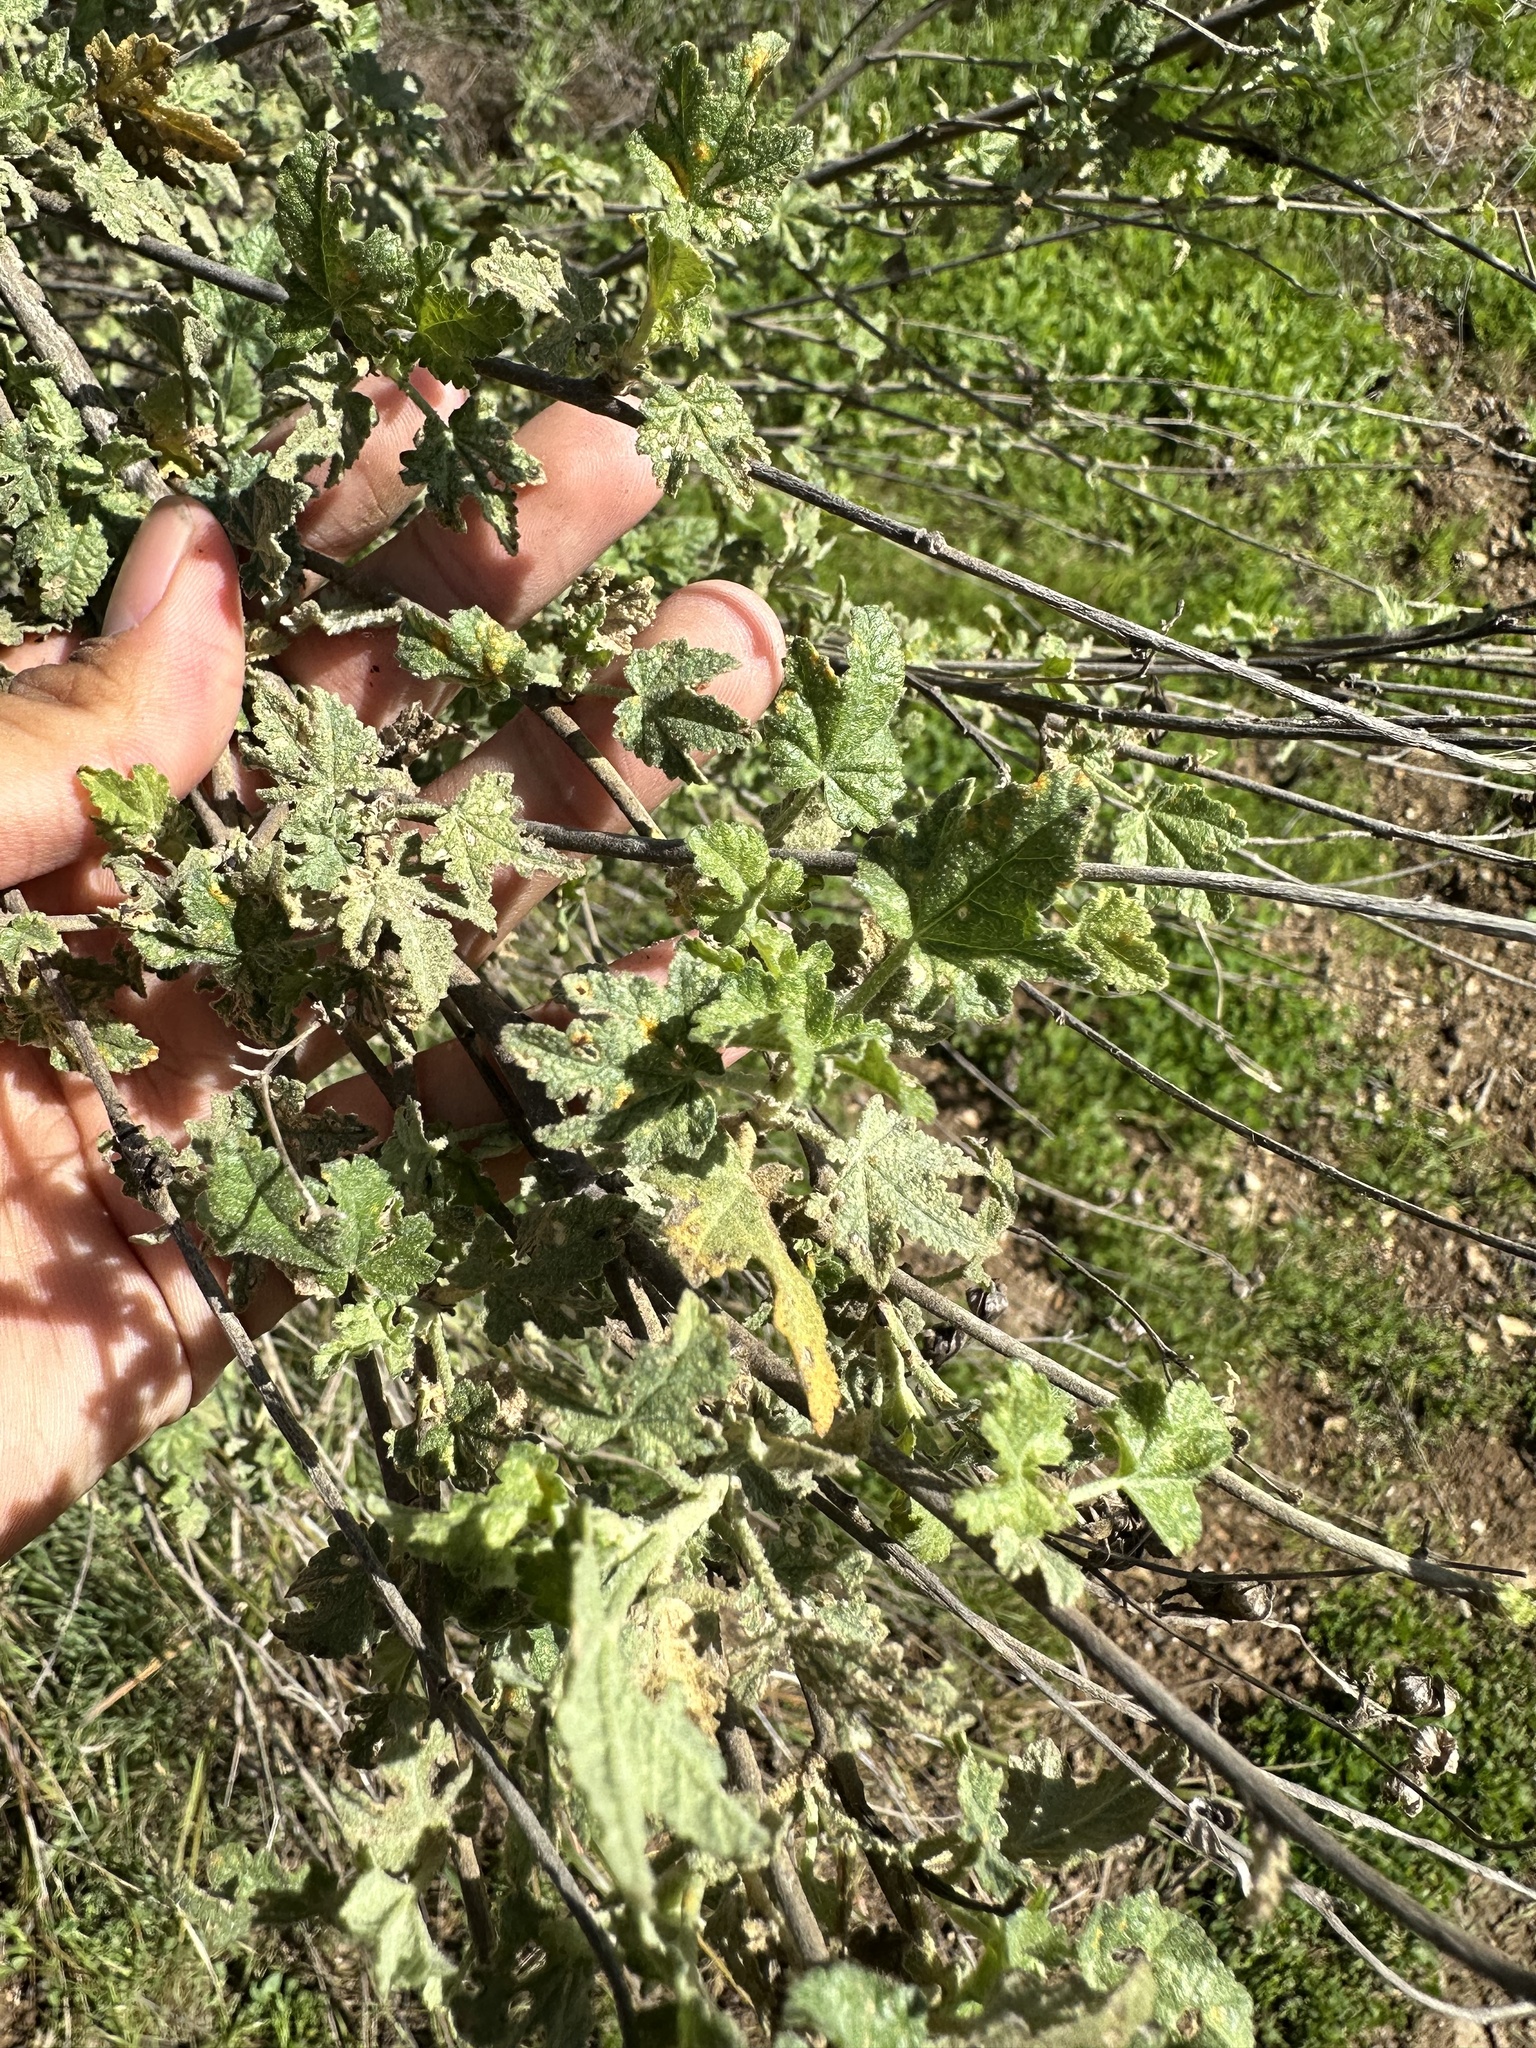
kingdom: Plantae
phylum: Tracheophyta
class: Magnoliopsida
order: Malvales
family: Malvaceae
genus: Malacothamnus
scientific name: Malacothamnus fasciculatus
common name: Sant cruz island bush-mallow
